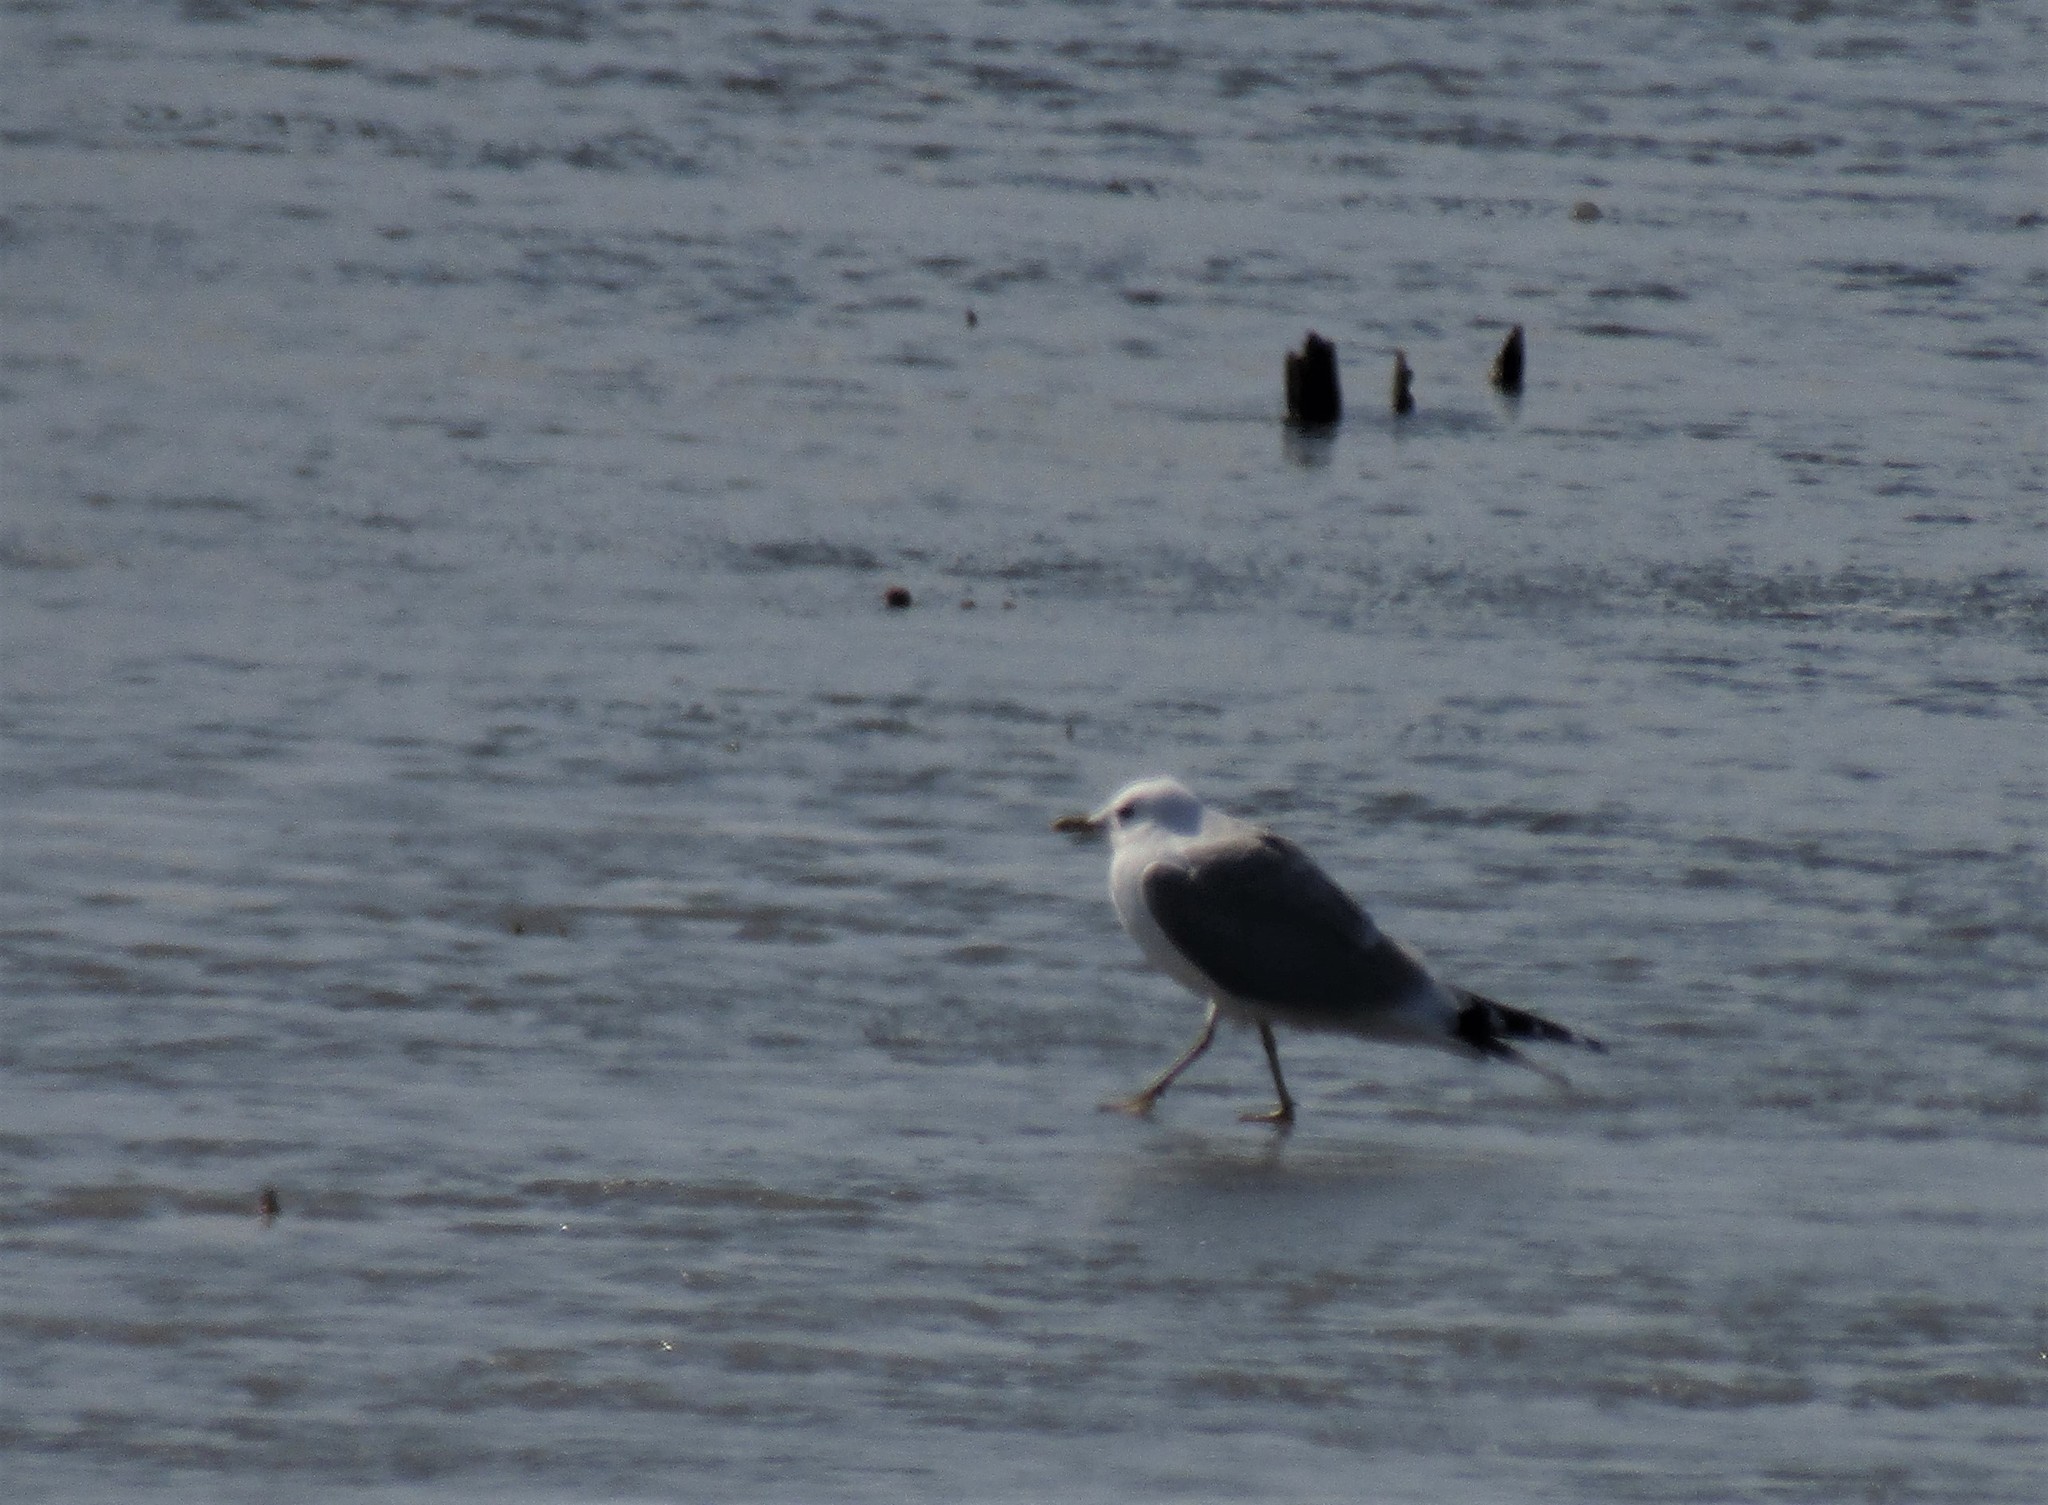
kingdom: Animalia
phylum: Chordata
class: Aves
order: Charadriiformes
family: Laridae
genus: Larus
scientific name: Larus canus
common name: Mew gull
